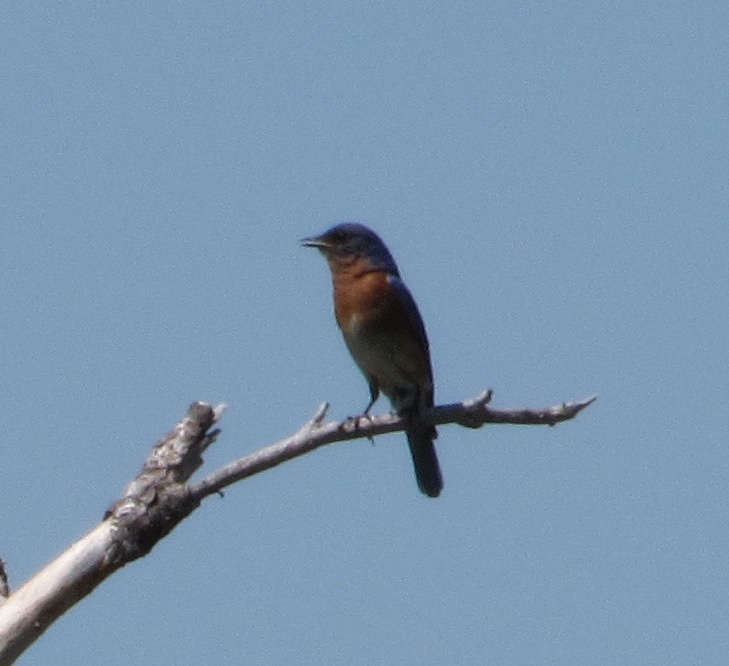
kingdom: Animalia
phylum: Chordata
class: Aves
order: Passeriformes
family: Turdidae
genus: Sialia
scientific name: Sialia sialis
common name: Eastern bluebird
